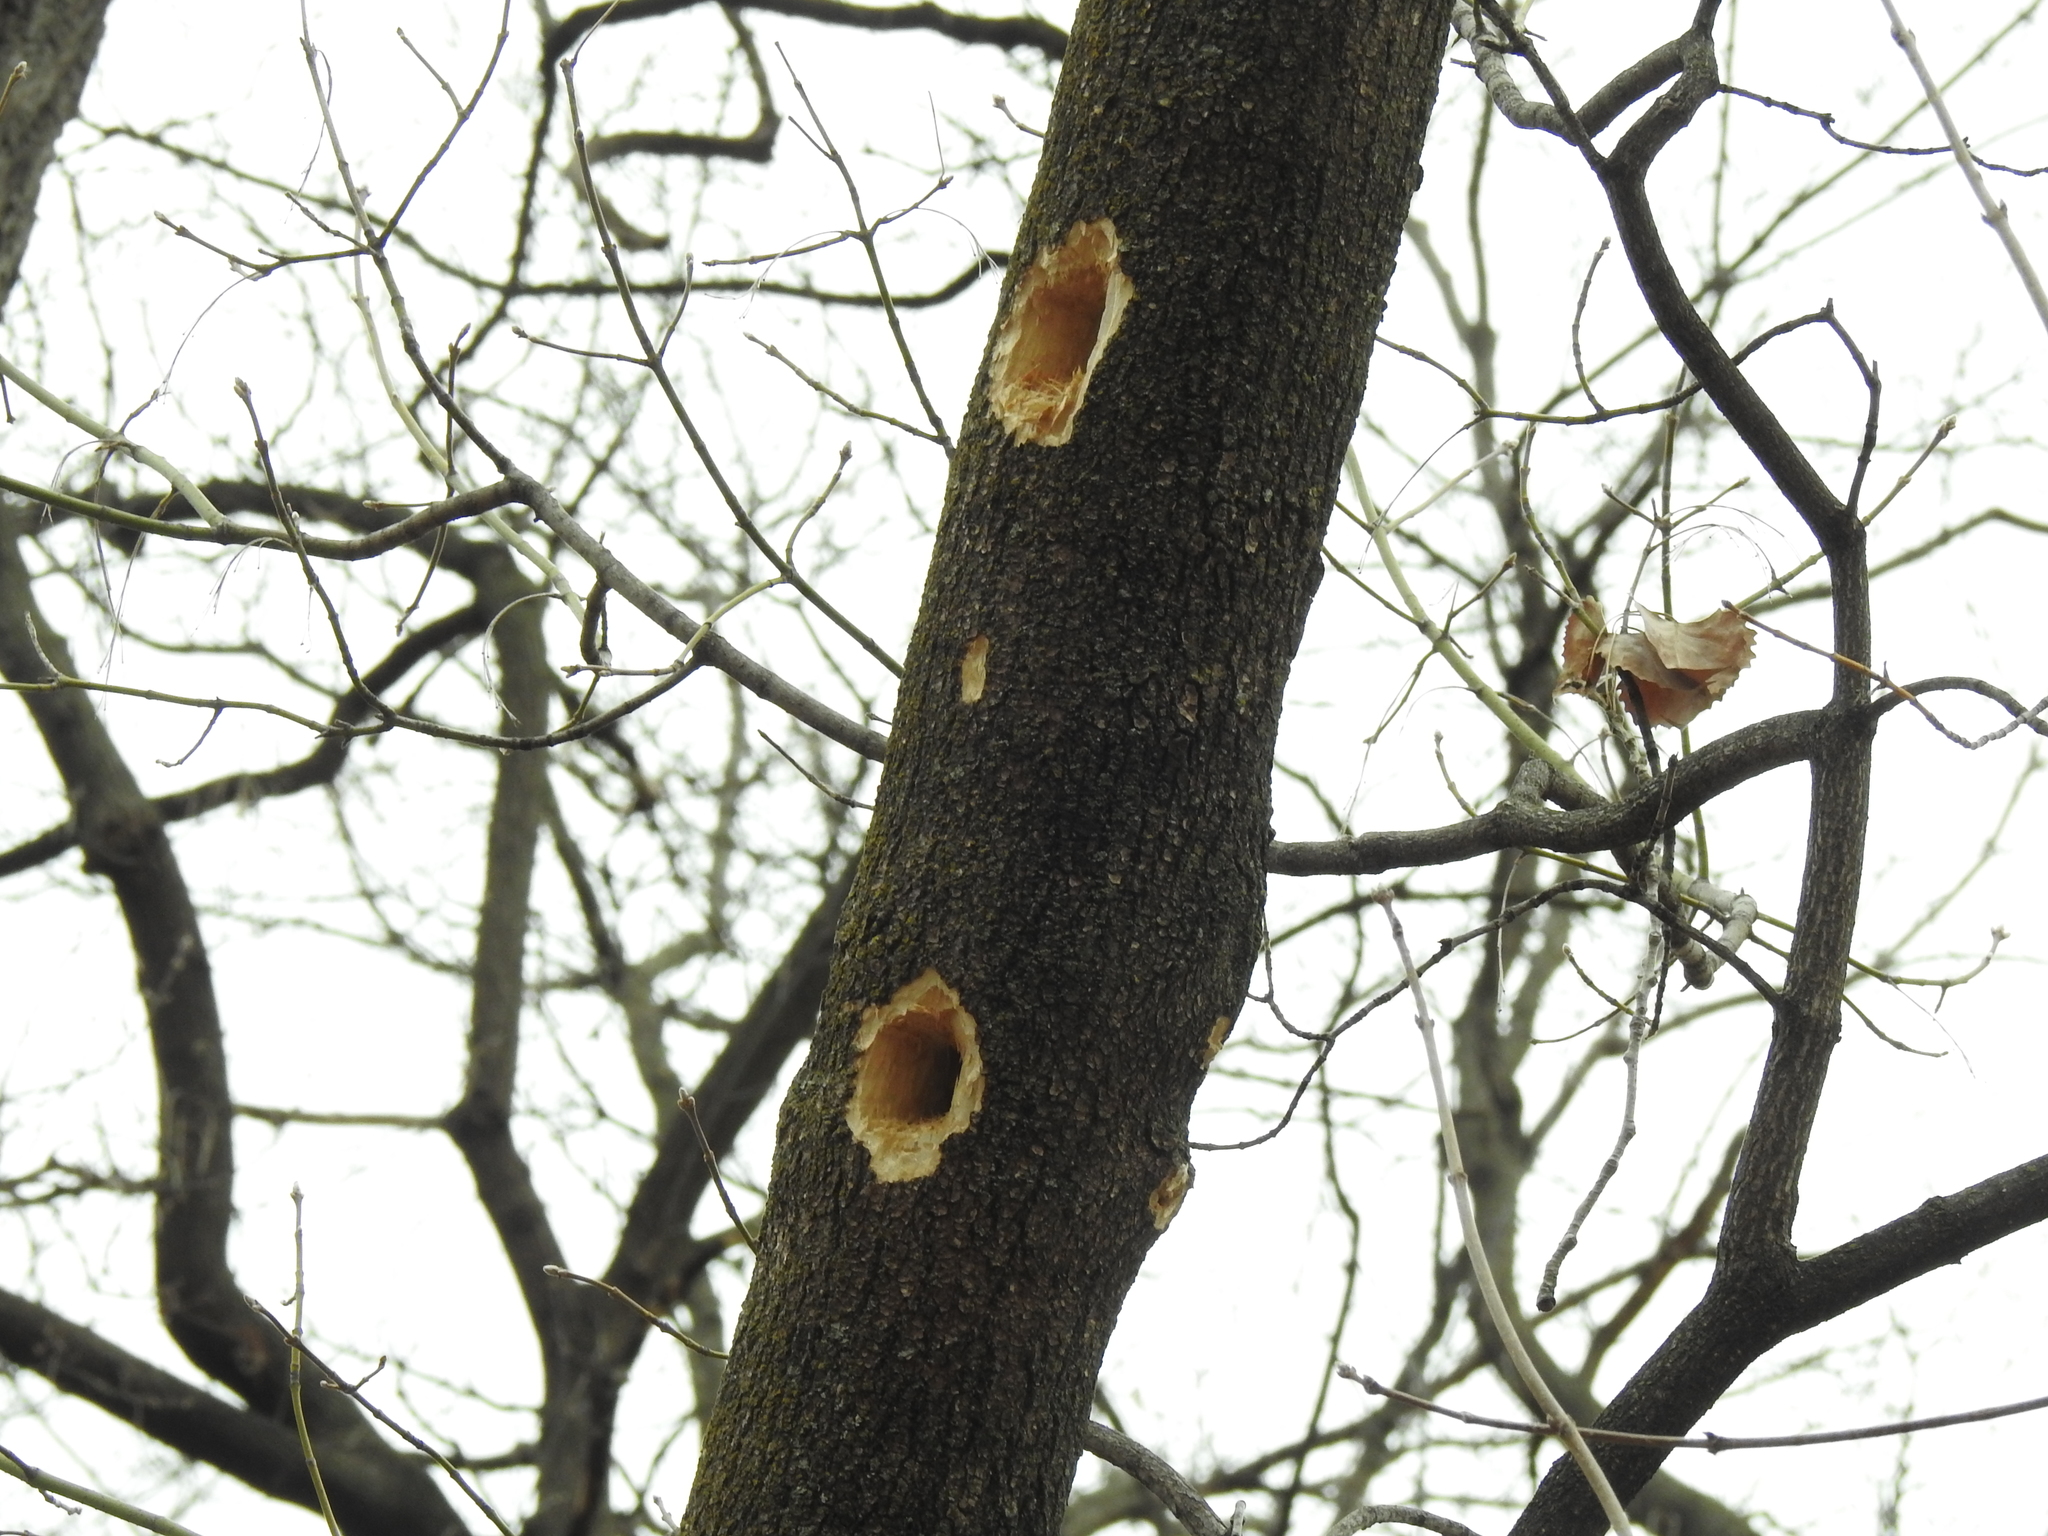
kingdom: Animalia
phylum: Chordata
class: Aves
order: Piciformes
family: Picidae
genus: Dryocopus
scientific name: Dryocopus pileatus
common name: Pileated woodpecker
